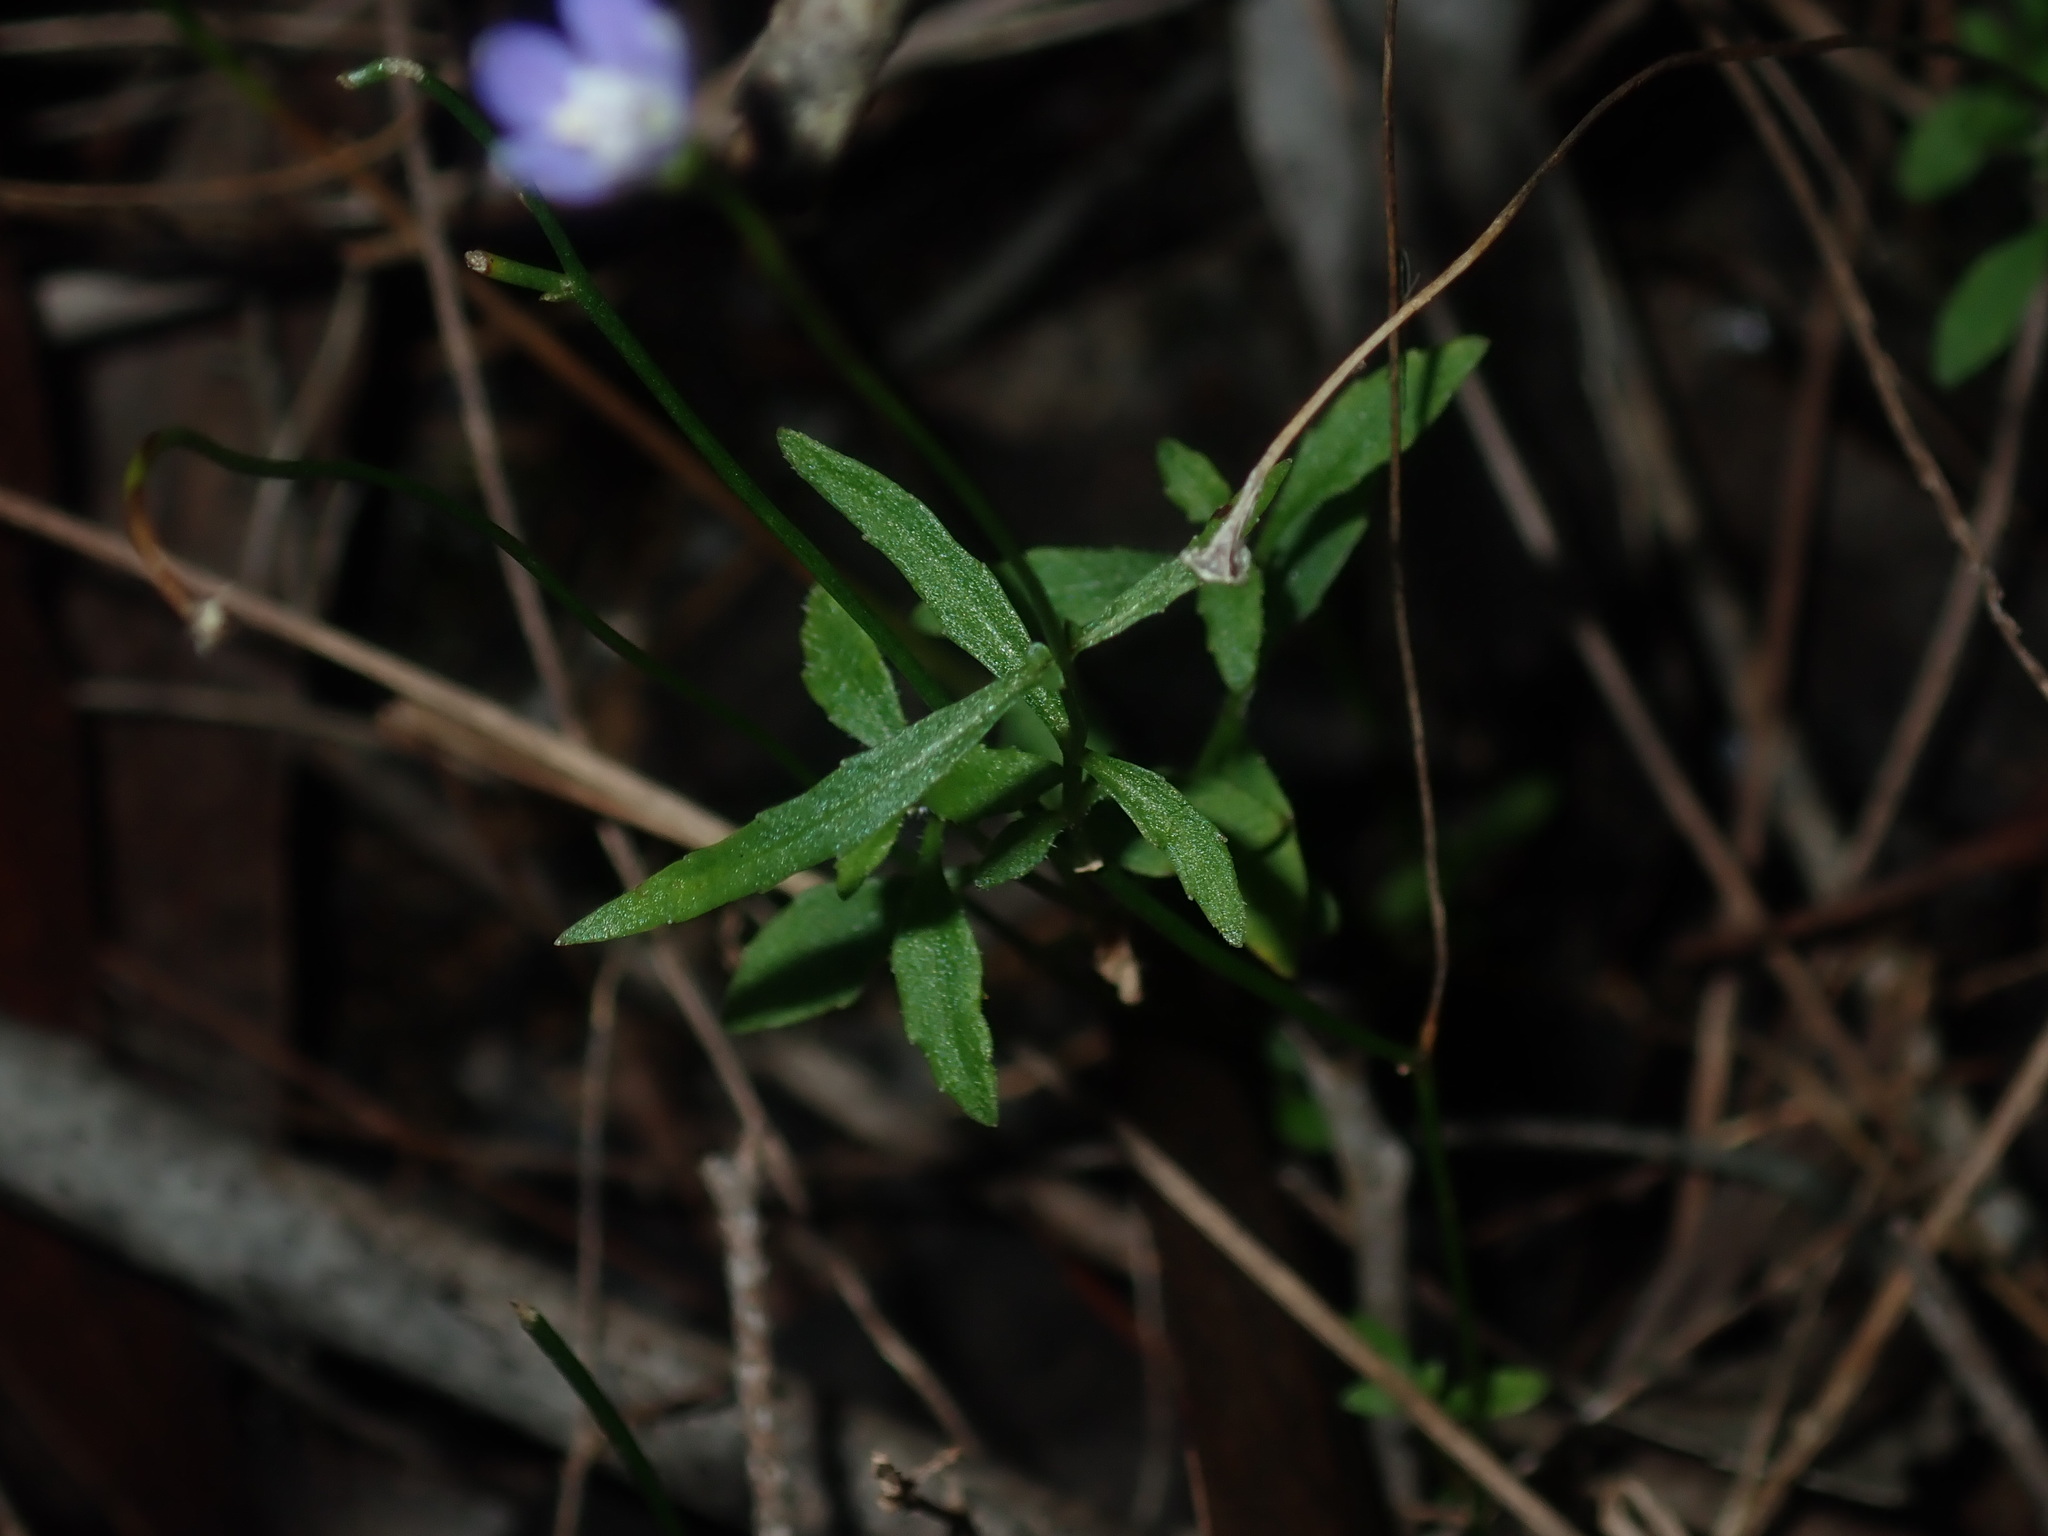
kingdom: Plantae
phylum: Tracheophyta
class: Magnoliopsida
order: Asterales
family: Campanulaceae
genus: Wahlenbergia
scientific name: Wahlenbergia gracilis
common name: Harebell
